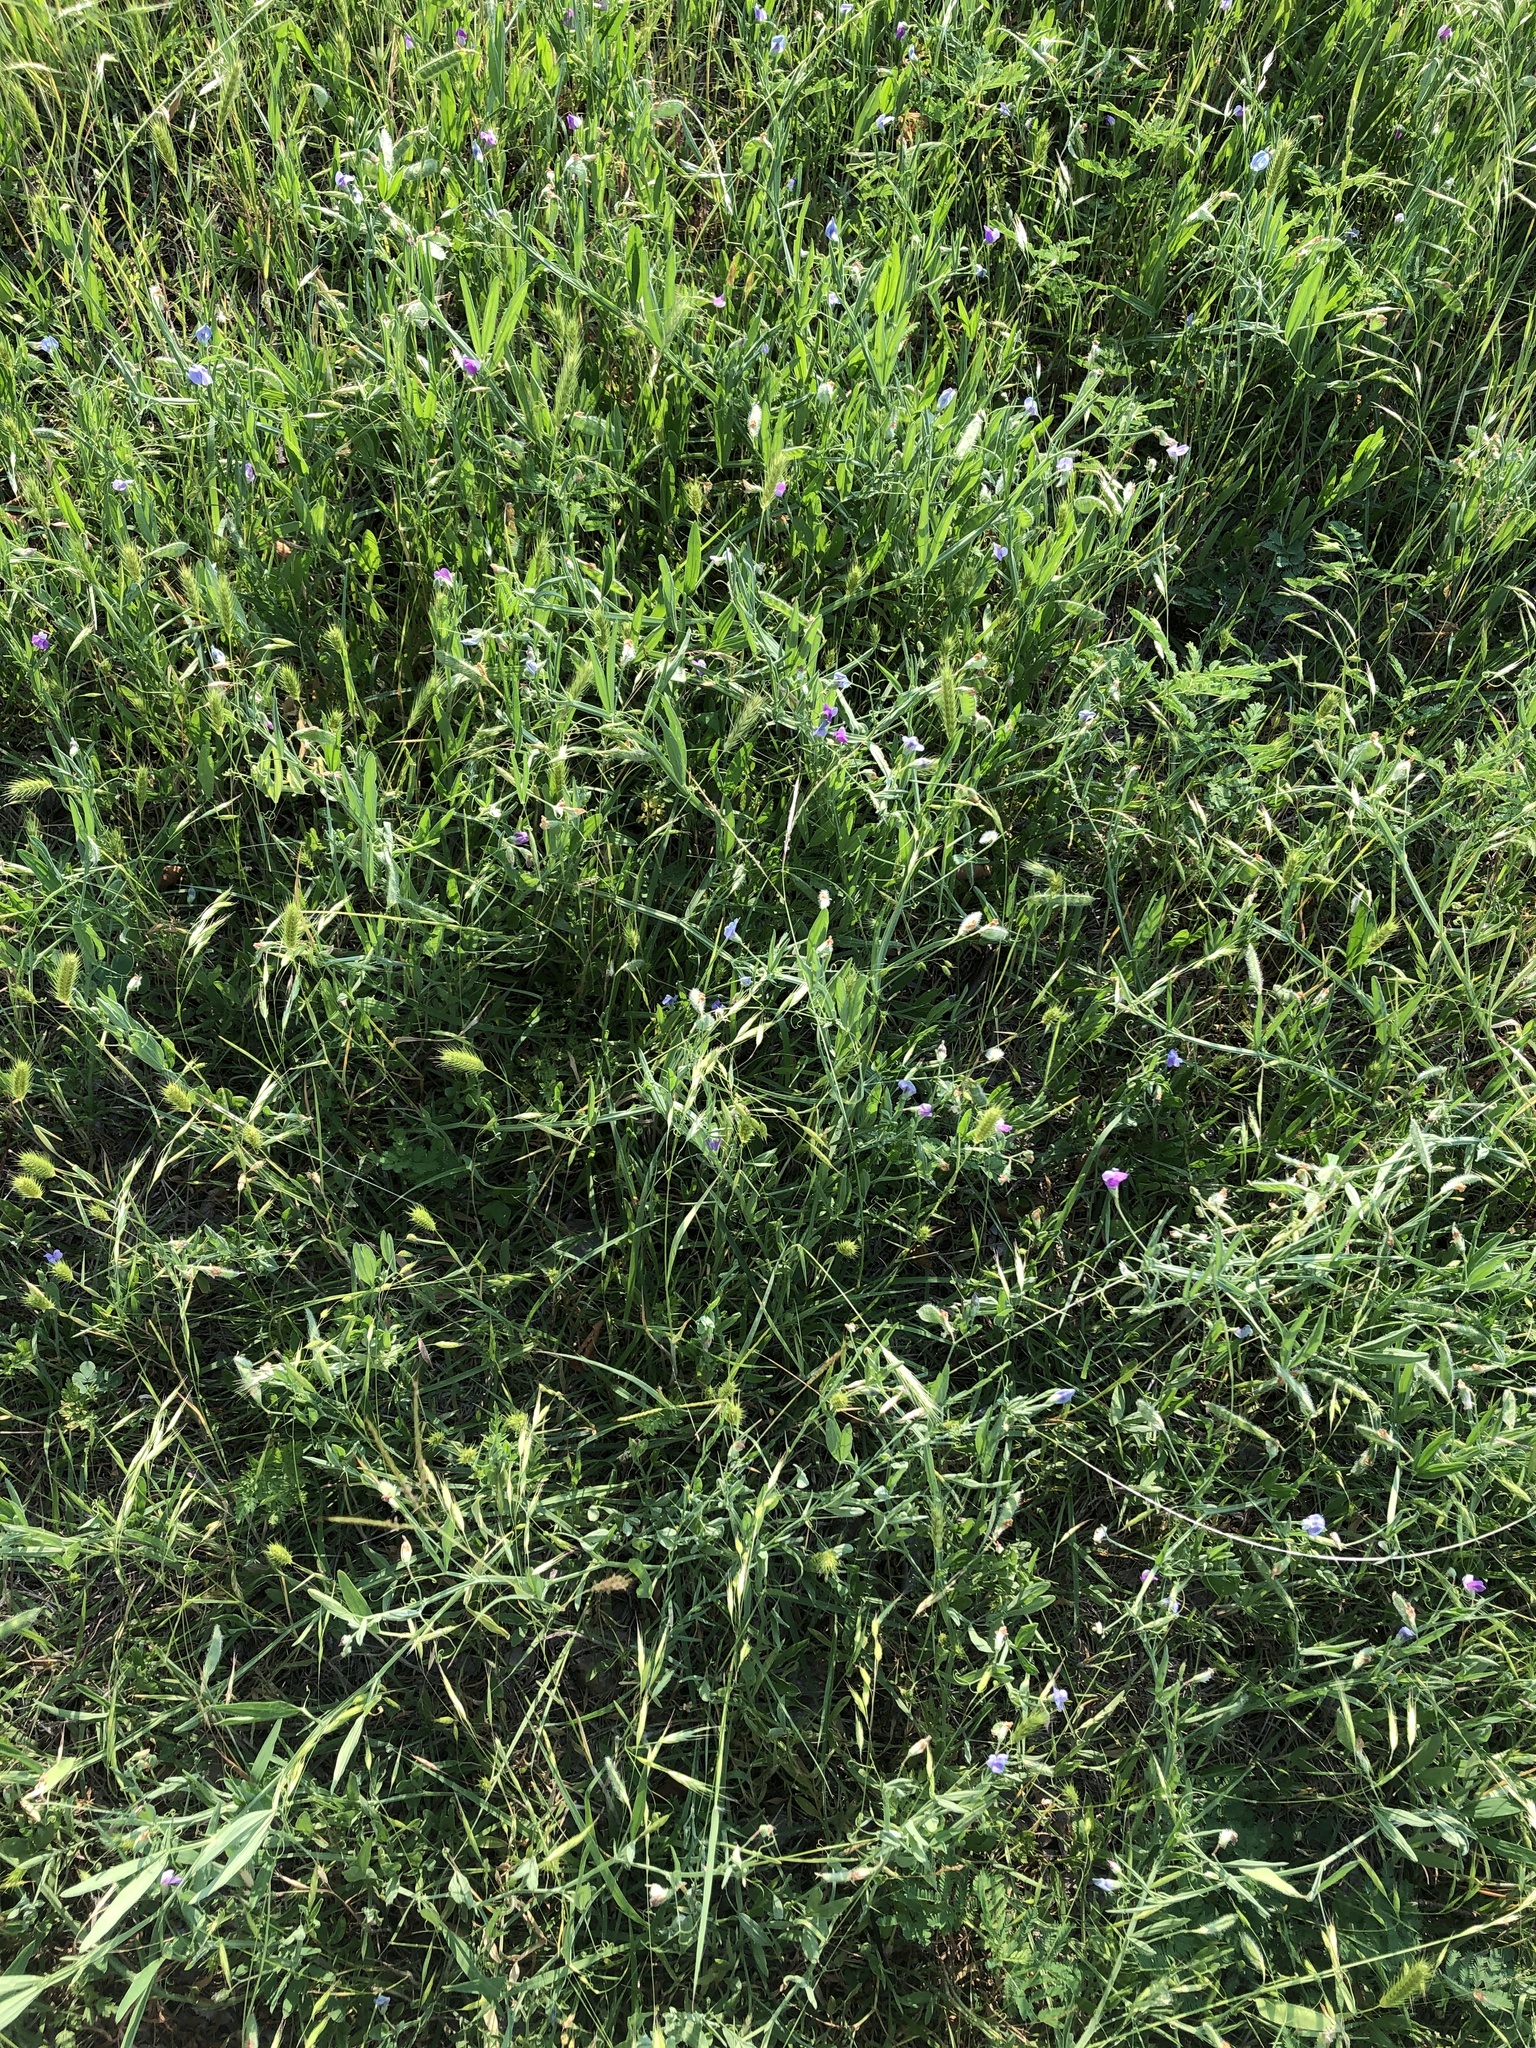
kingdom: Plantae
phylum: Tracheophyta
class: Magnoliopsida
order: Fabales
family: Fabaceae
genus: Lathyrus
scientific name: Lathyrus hirsutus
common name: Hairy vetchling
